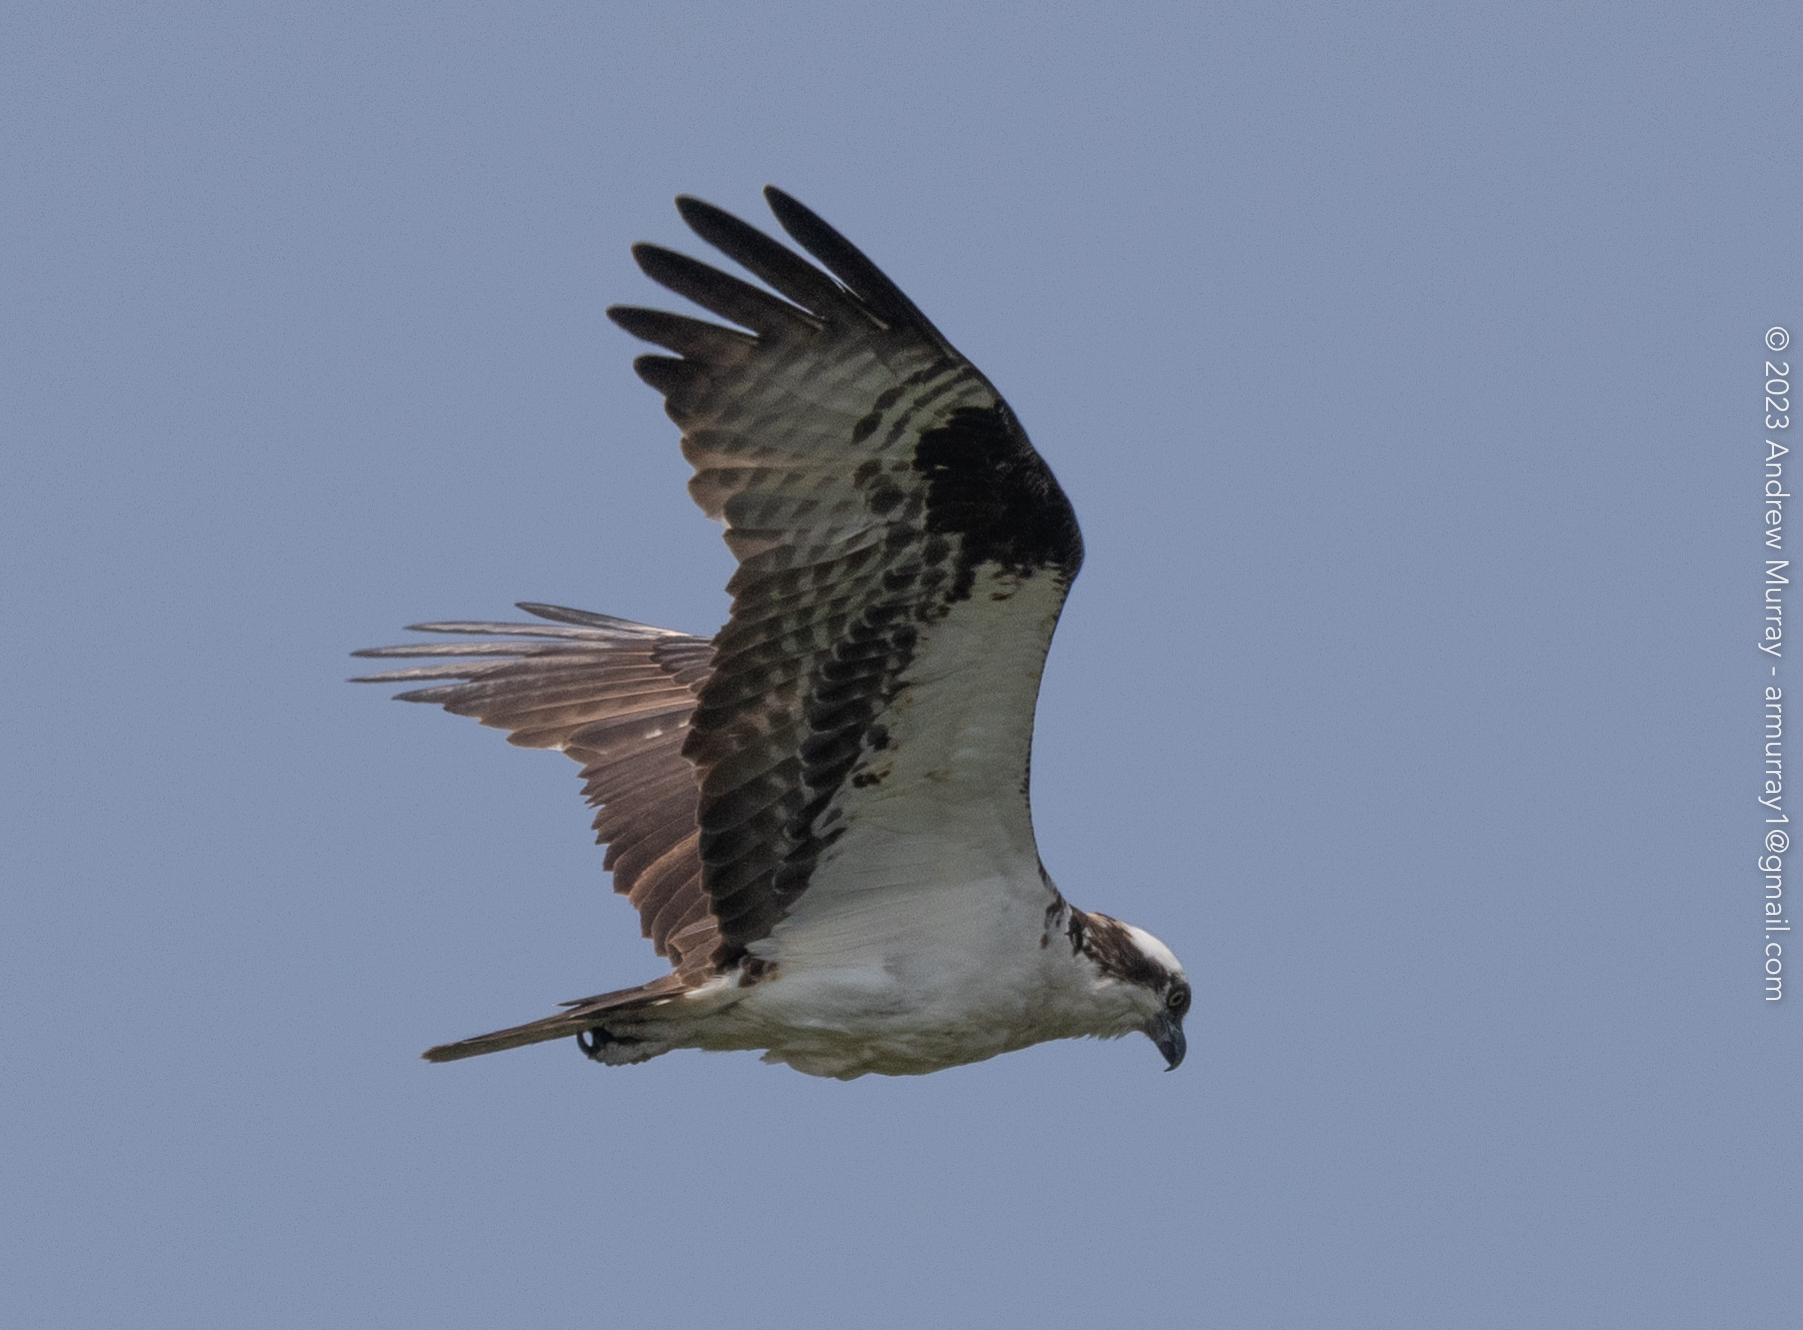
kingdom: Animalia
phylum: Chordata
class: Aves
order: Accipitriformes
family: Pandionidae
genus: Pandion
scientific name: Pandion haliaetus
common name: Osprey
